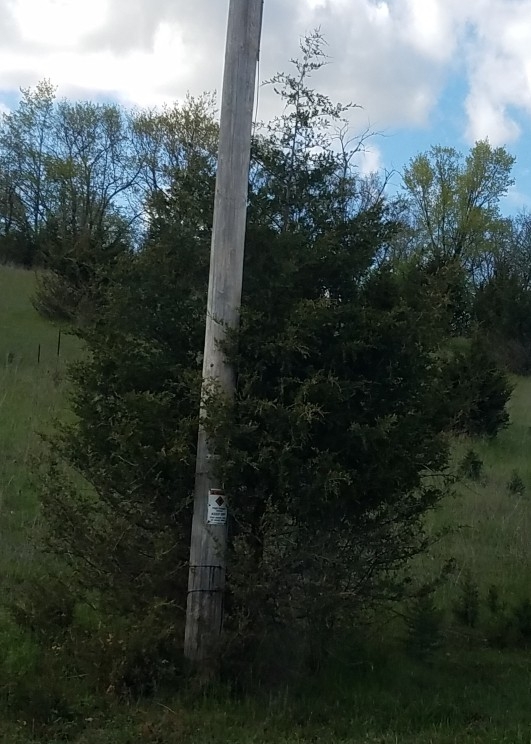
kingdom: Plantae
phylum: Tracheophyta
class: Pinopsida
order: Pinales
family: Cupressaceae
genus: Juniperus
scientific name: Juniperus virginiana
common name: Red juniper
